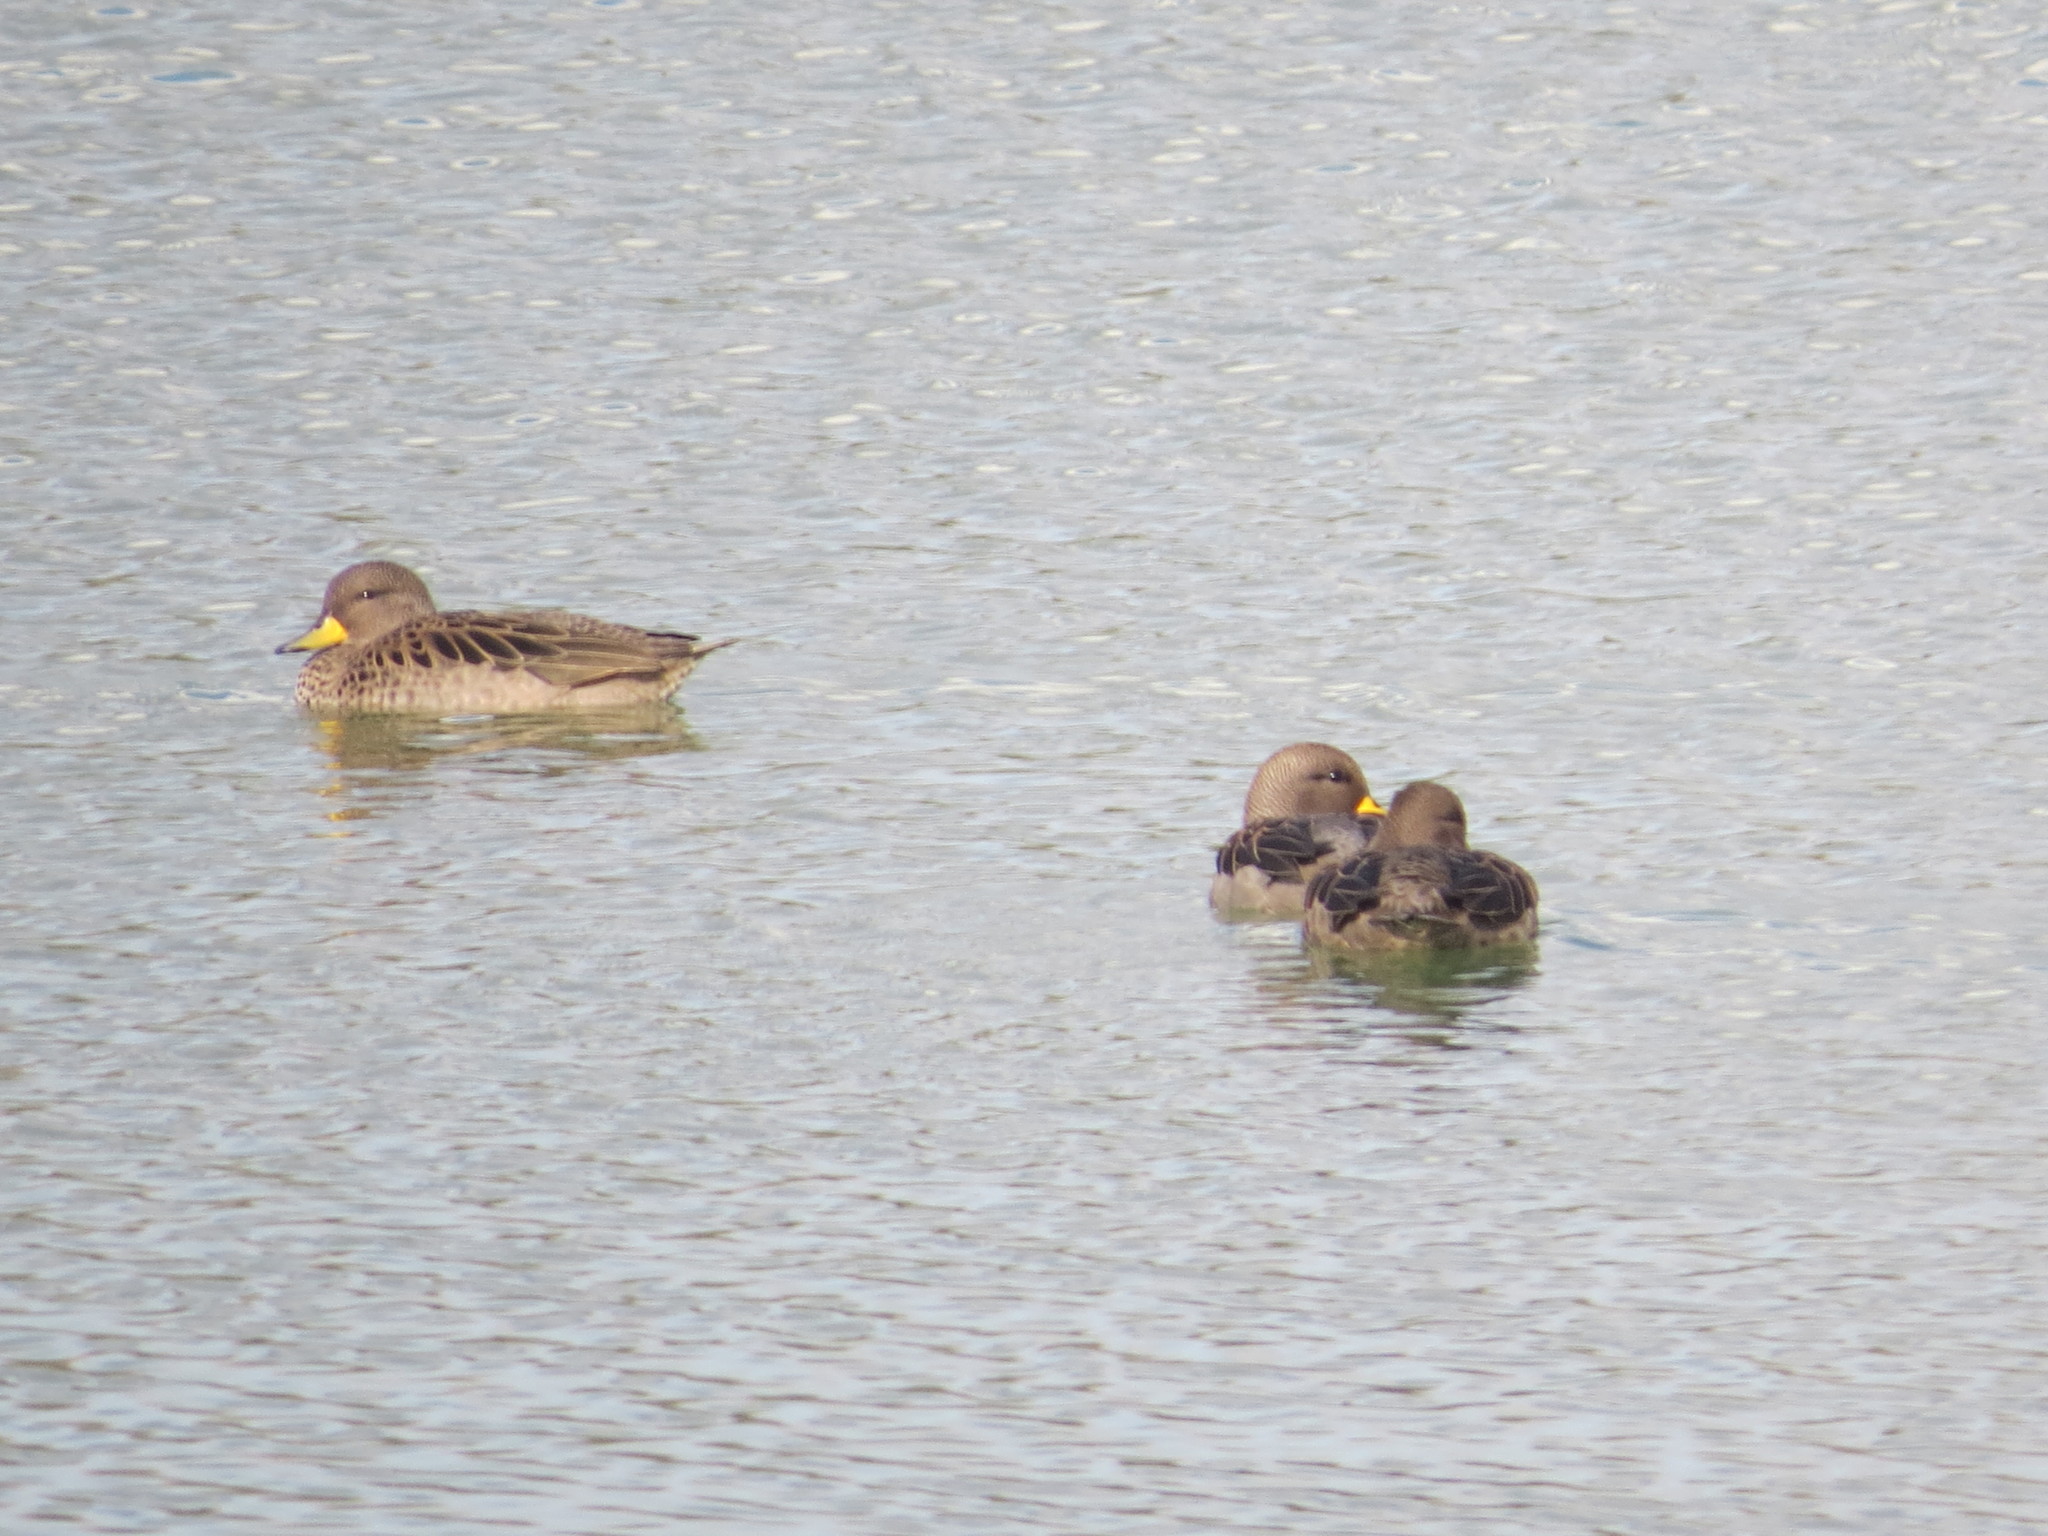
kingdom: Animalia
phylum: Chordata
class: Aves
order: Anseriformes
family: Anatidae
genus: Anas
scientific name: Anas flavirostris
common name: Yellow-billed teal
